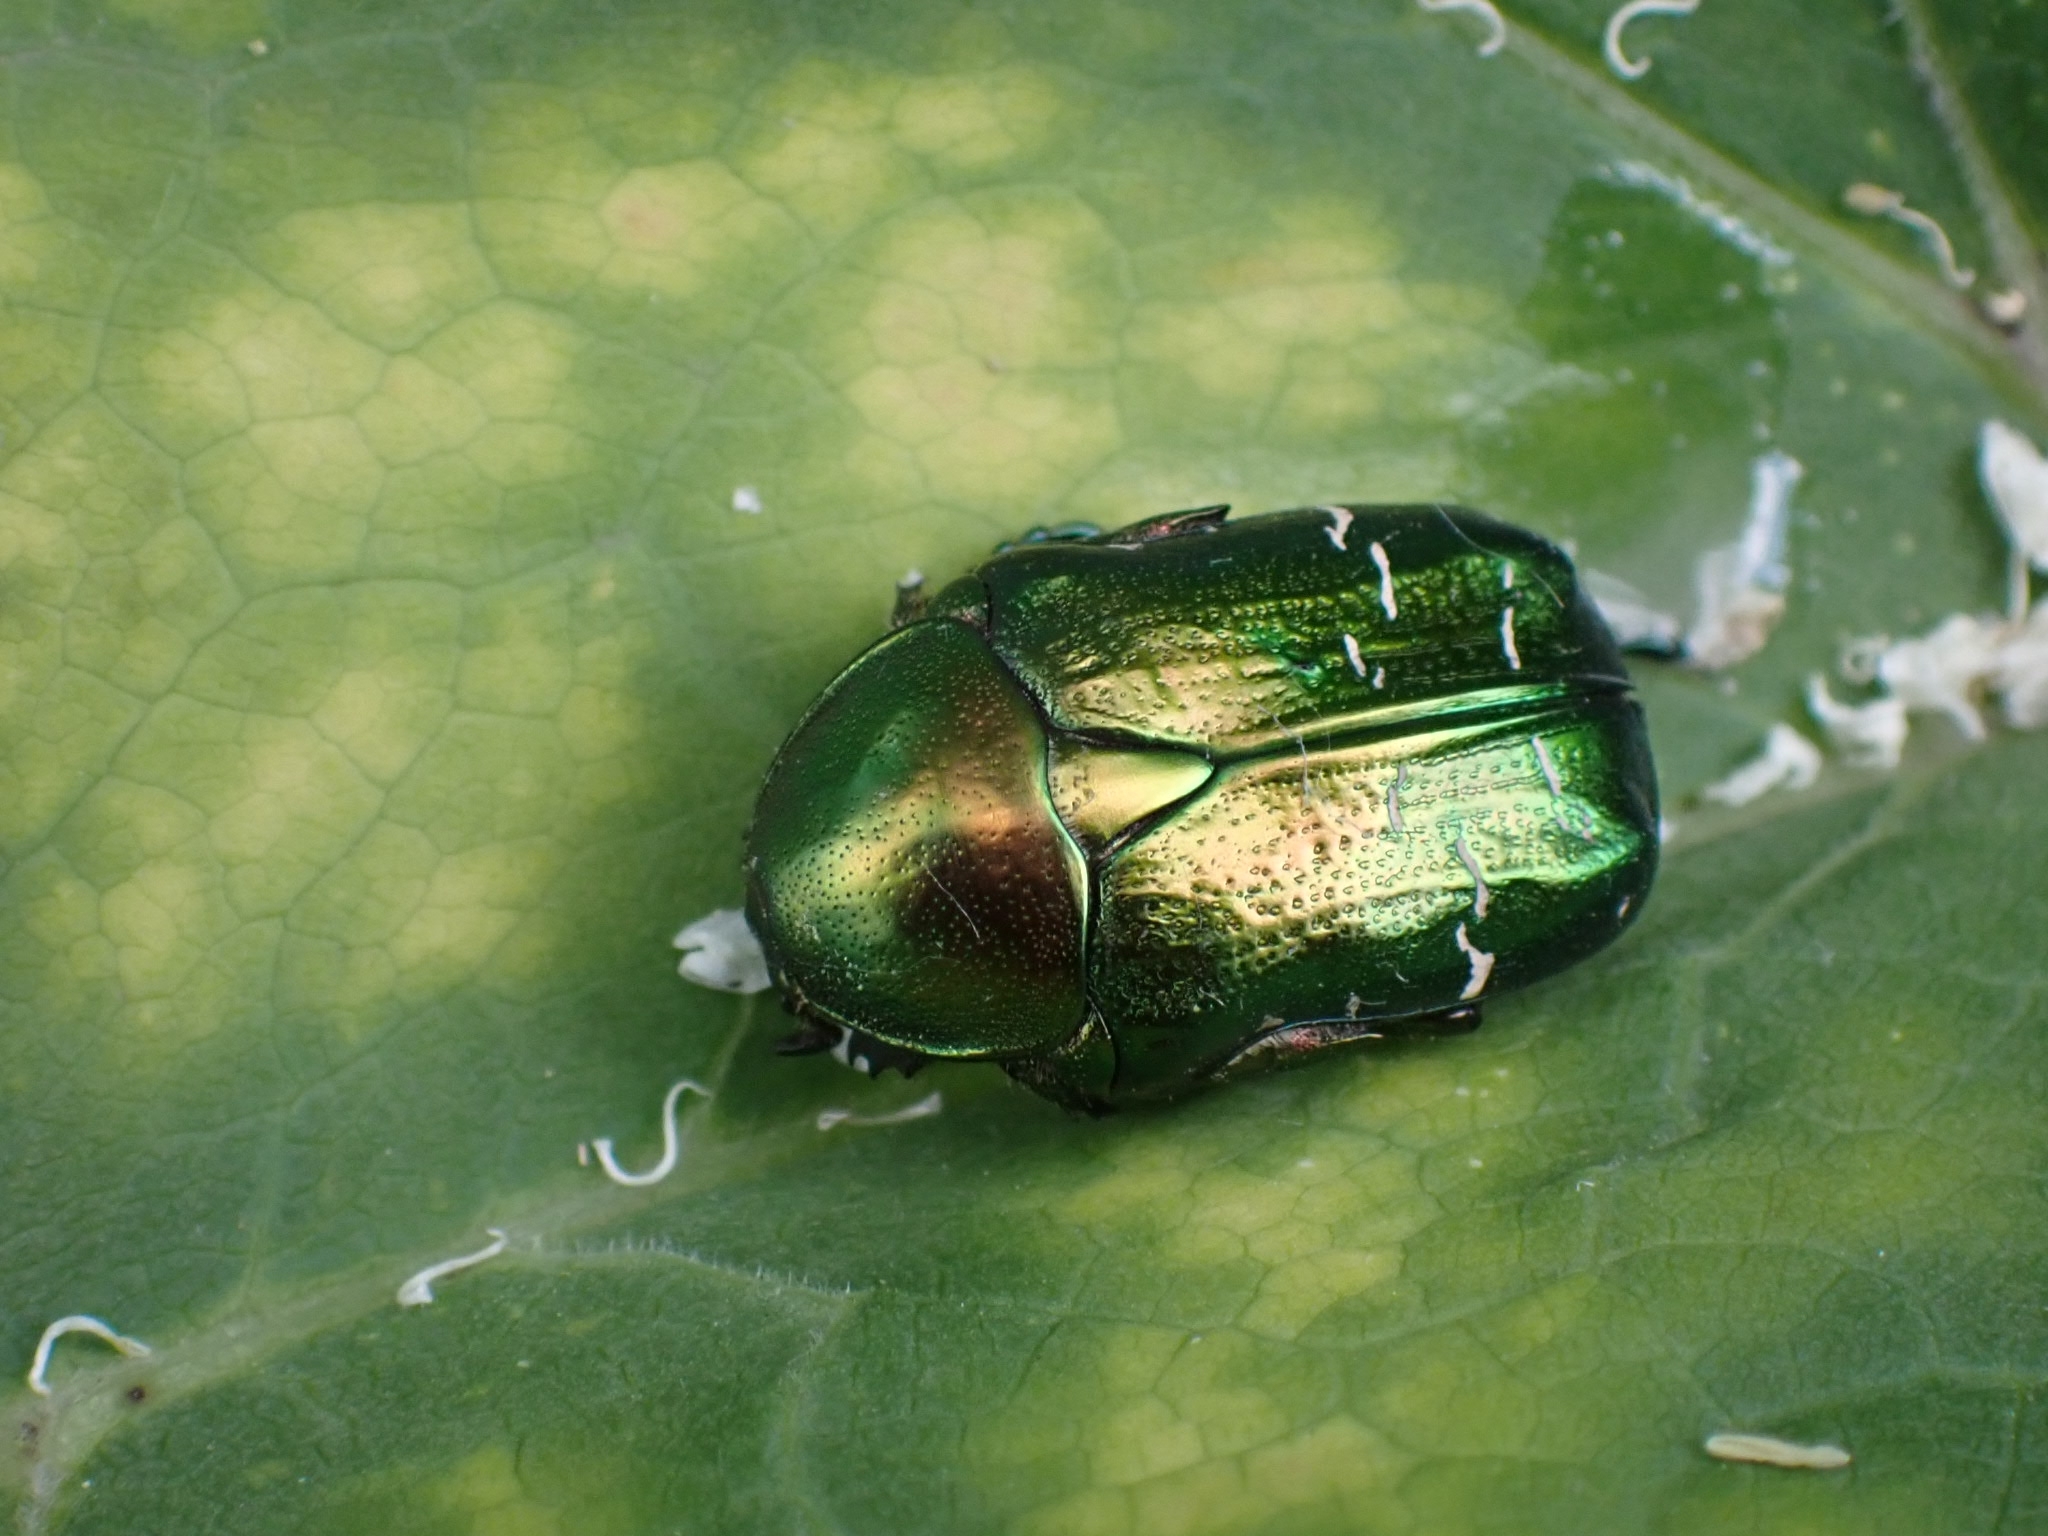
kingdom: Animalia
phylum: Arthropoda
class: Insecta
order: Coleoptera
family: Scarabaeidae
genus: Cetonia
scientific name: Cetonia aurata
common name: Rose chafer
